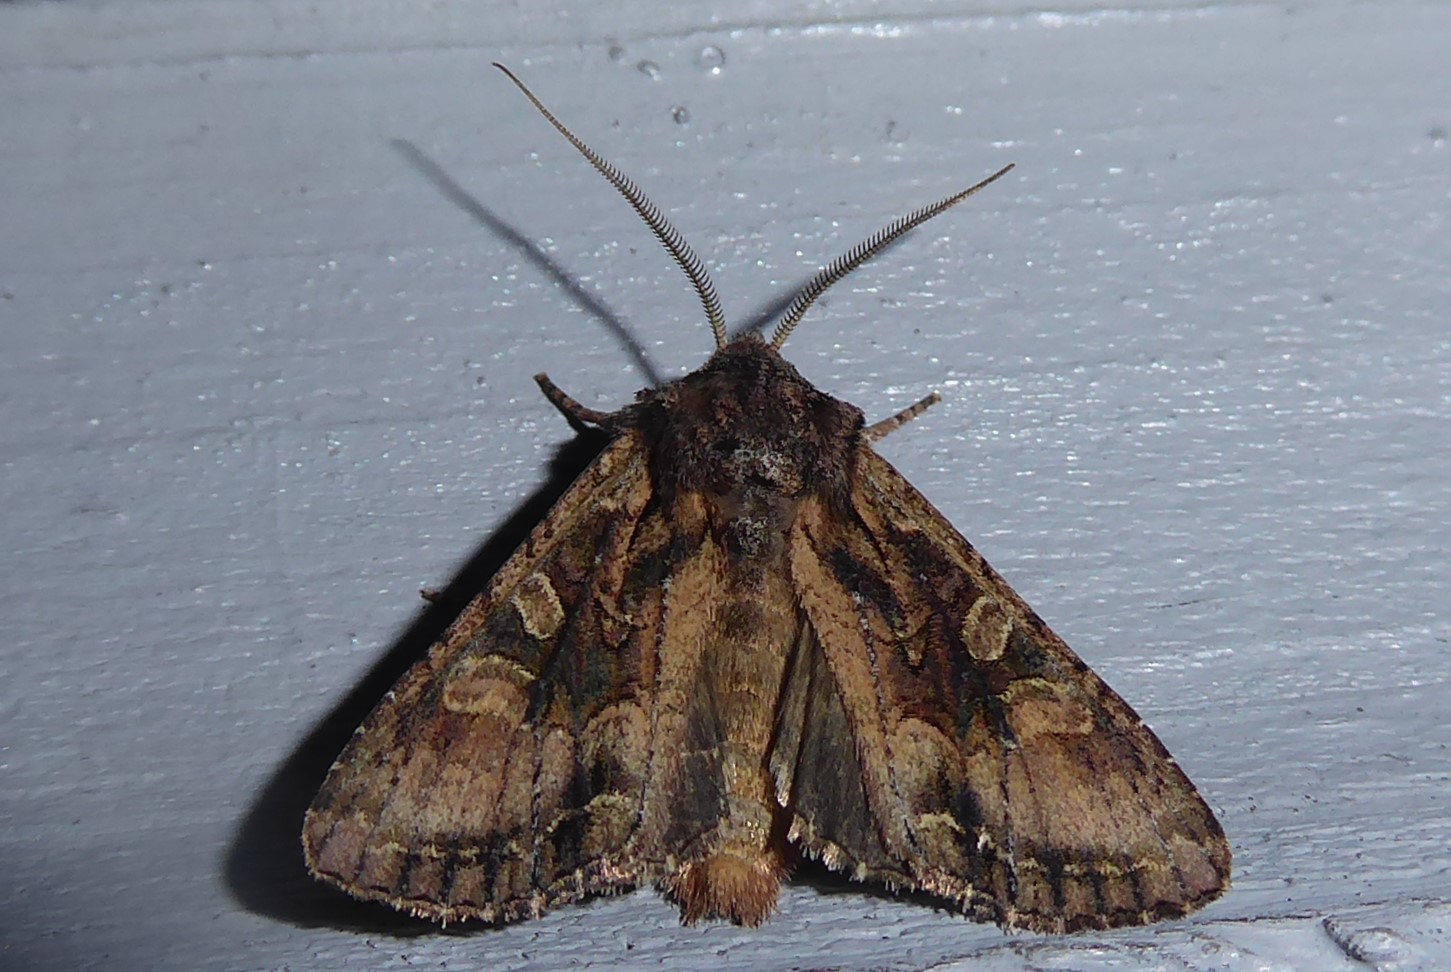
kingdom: Animalia
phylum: Arthropoda
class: Insecta
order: Lepidoptera
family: Noctuidae
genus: Ichneutica
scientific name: Ichneutica mutans
